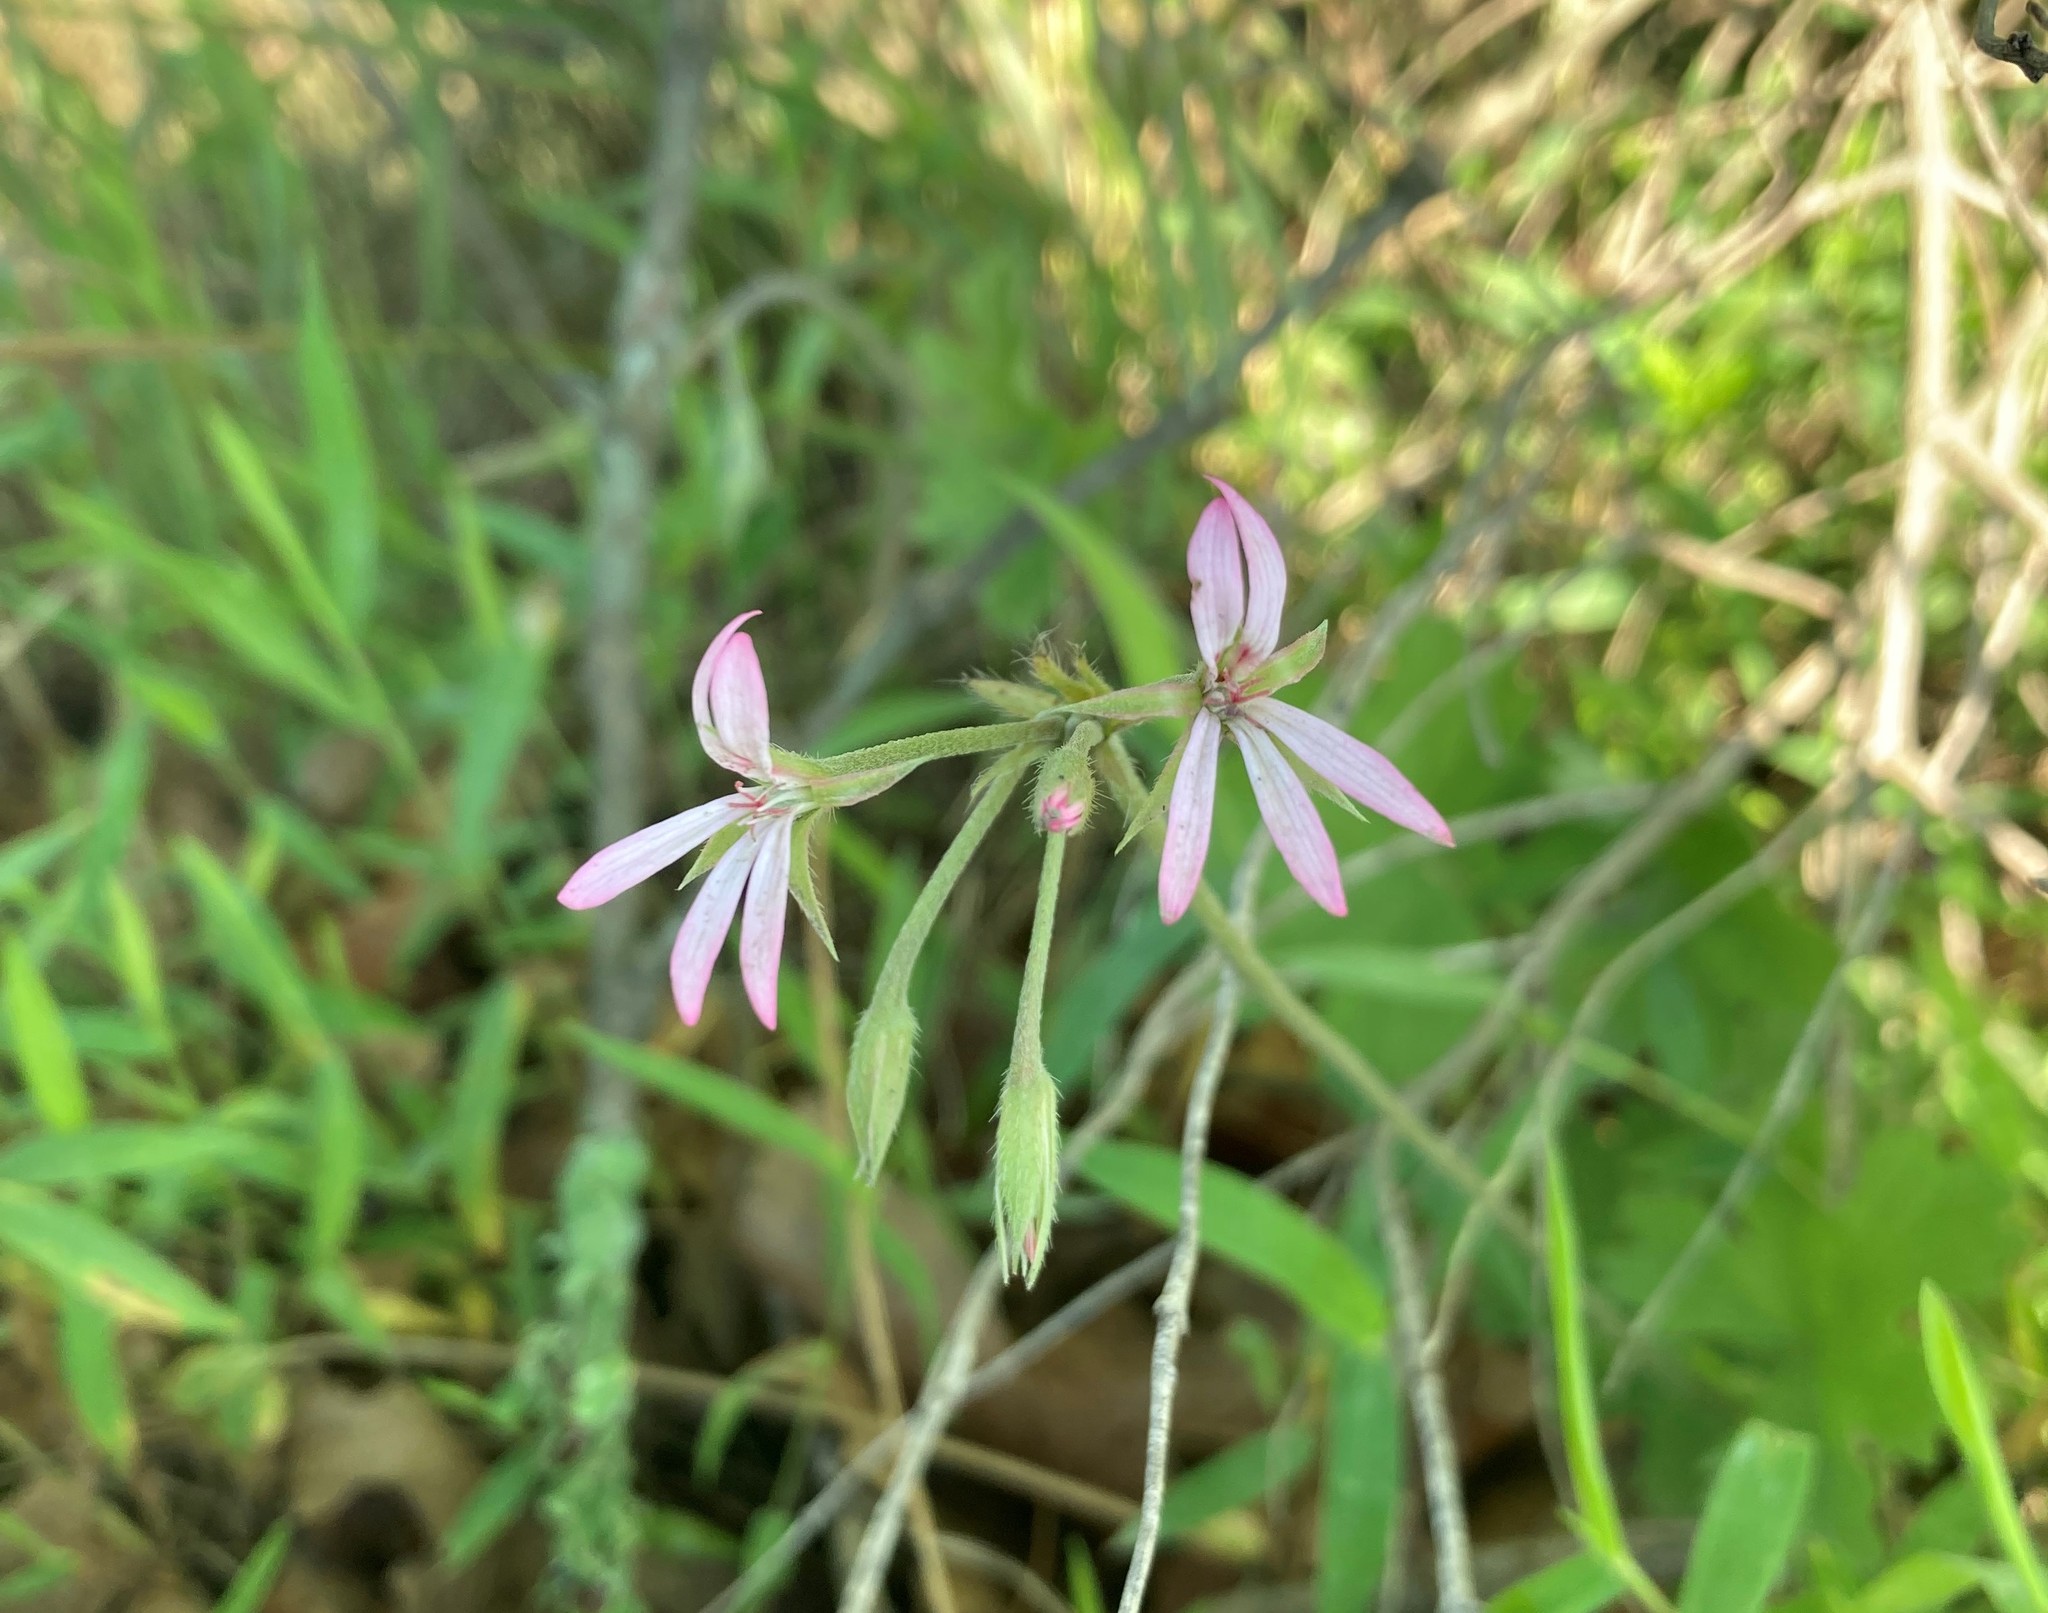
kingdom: Plantae
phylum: Tracheophyta
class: Magnoliopsida
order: Geraniales
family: Geraniaceae
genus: Pelargonium
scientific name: Pelargonium alchemilloides
